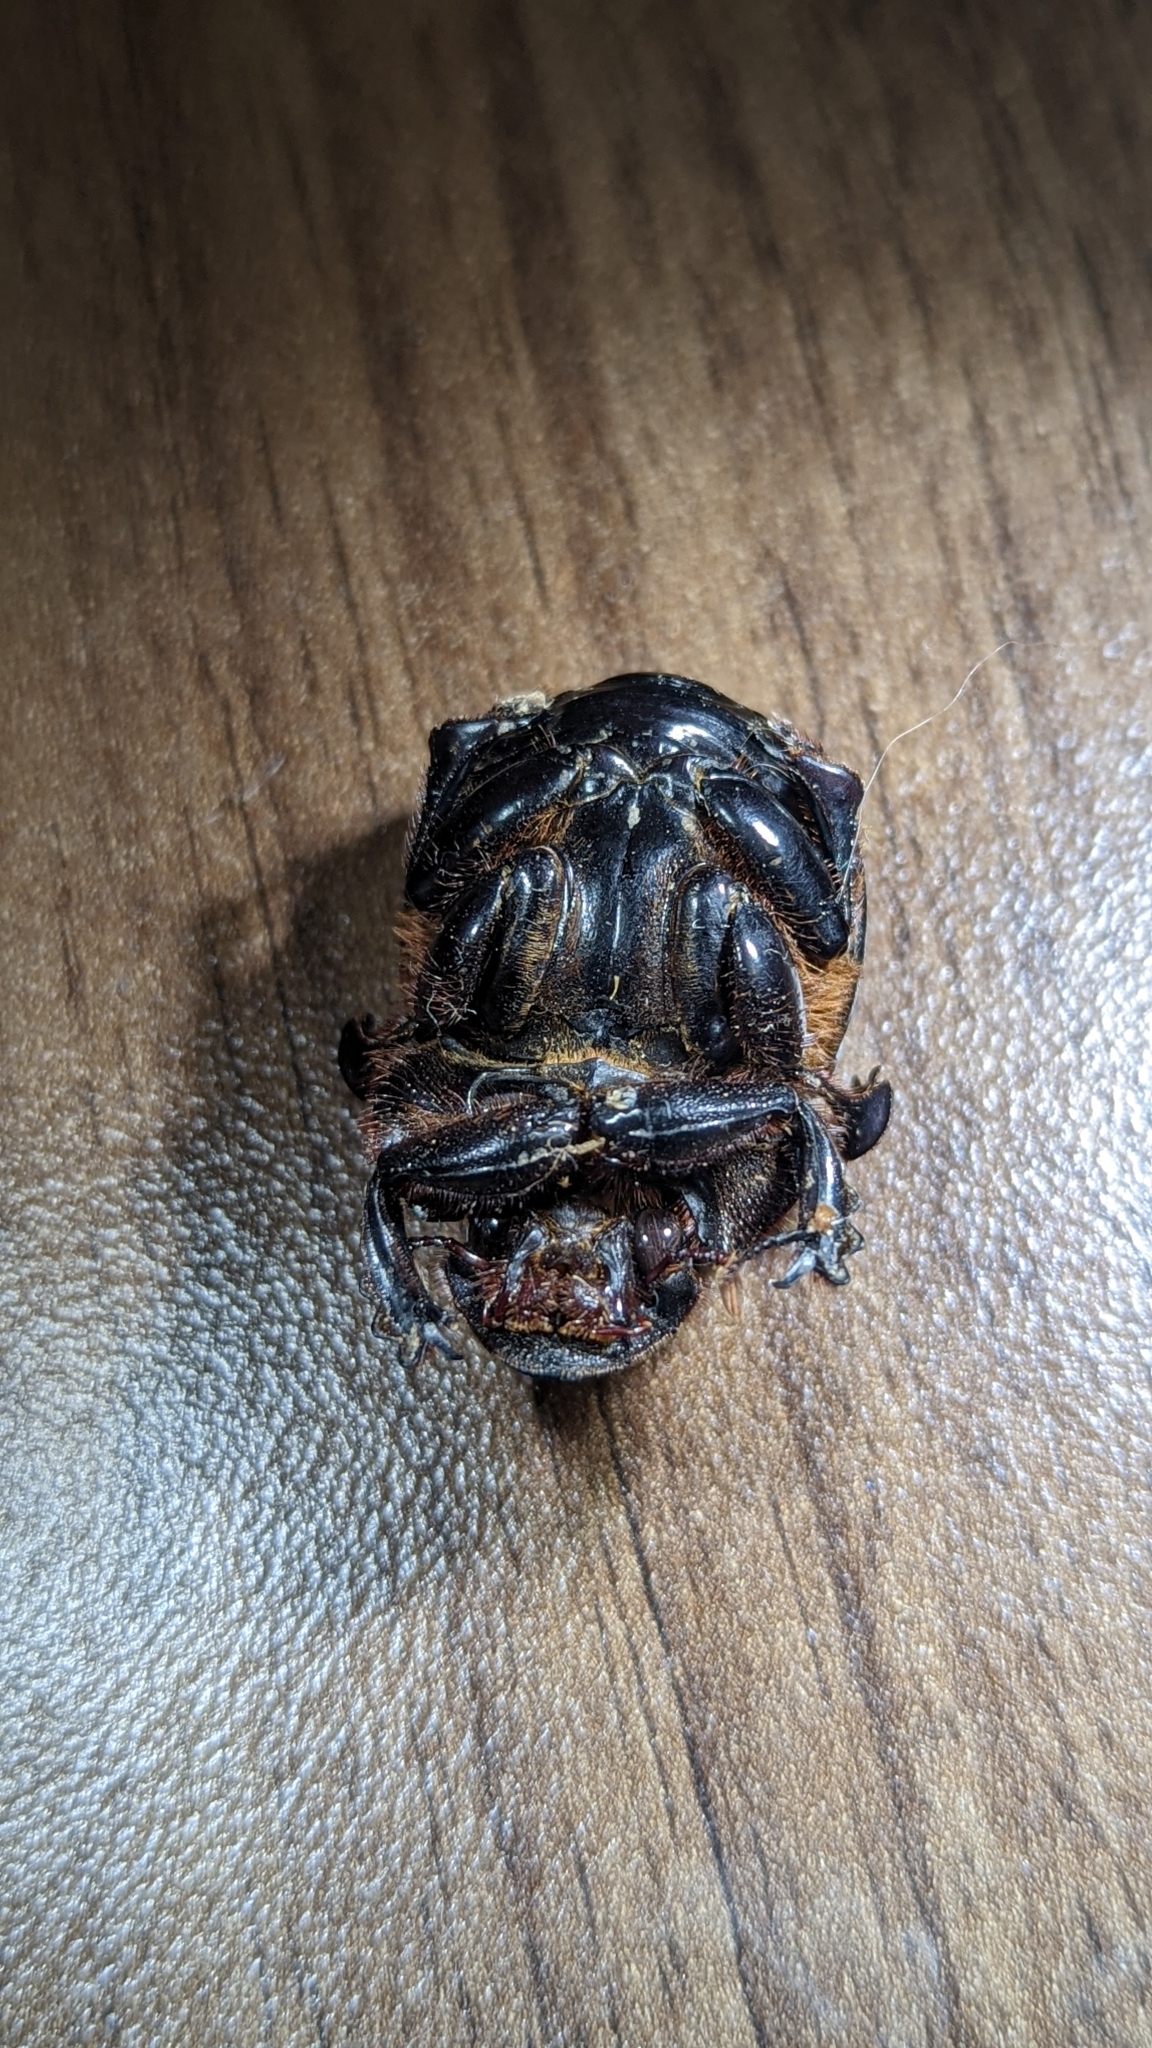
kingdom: Animalia
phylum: Arthropoda
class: Insecta
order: Coleoptera
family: Scarabaeidae
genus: Dichotomius
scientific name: Dichotomius carolinus
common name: Carolina copris
